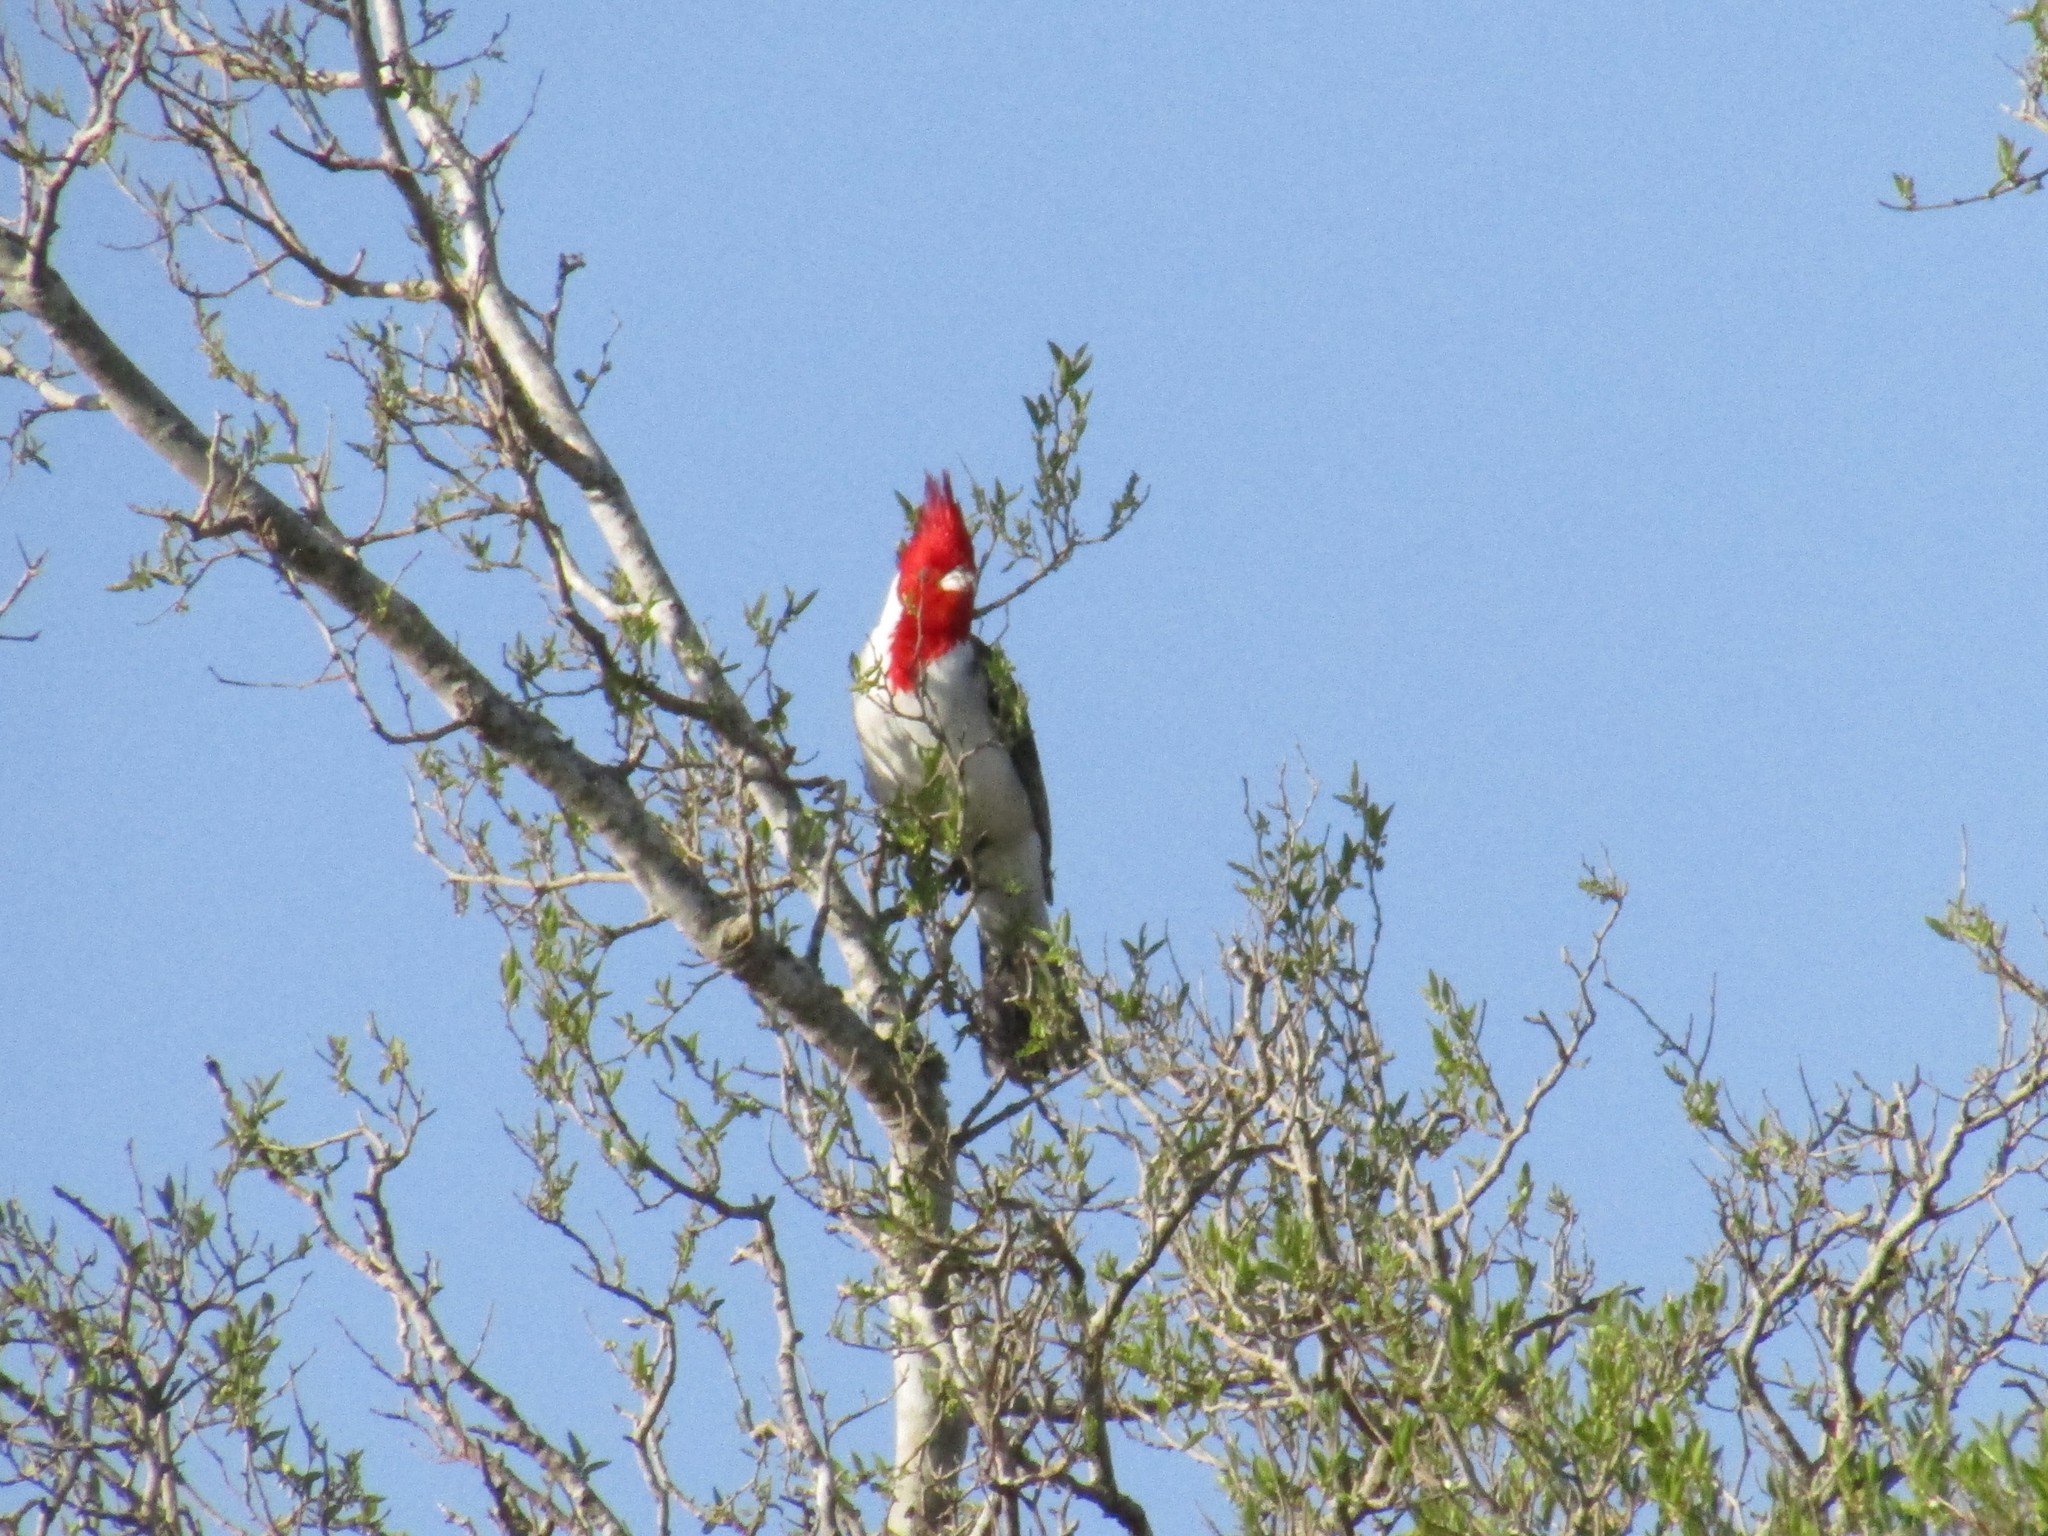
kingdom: Animalia
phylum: Chordata
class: Aves
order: Passeriformes
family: Thraupidae
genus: Paroaria
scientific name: Paroaria coronata
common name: Red-crested cardinal
